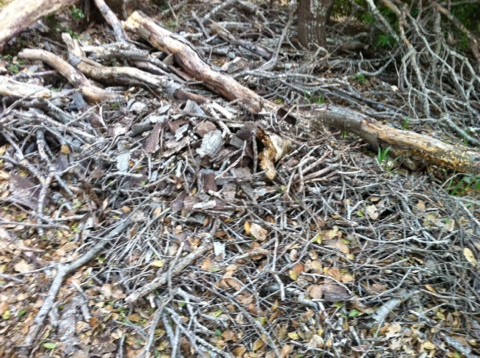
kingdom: Animalia
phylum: Chordata
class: Mammalia
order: Rodentia
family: Cricetidae
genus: Neotoma
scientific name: Neotoma fuscipes
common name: Dusky-footed woodrat
